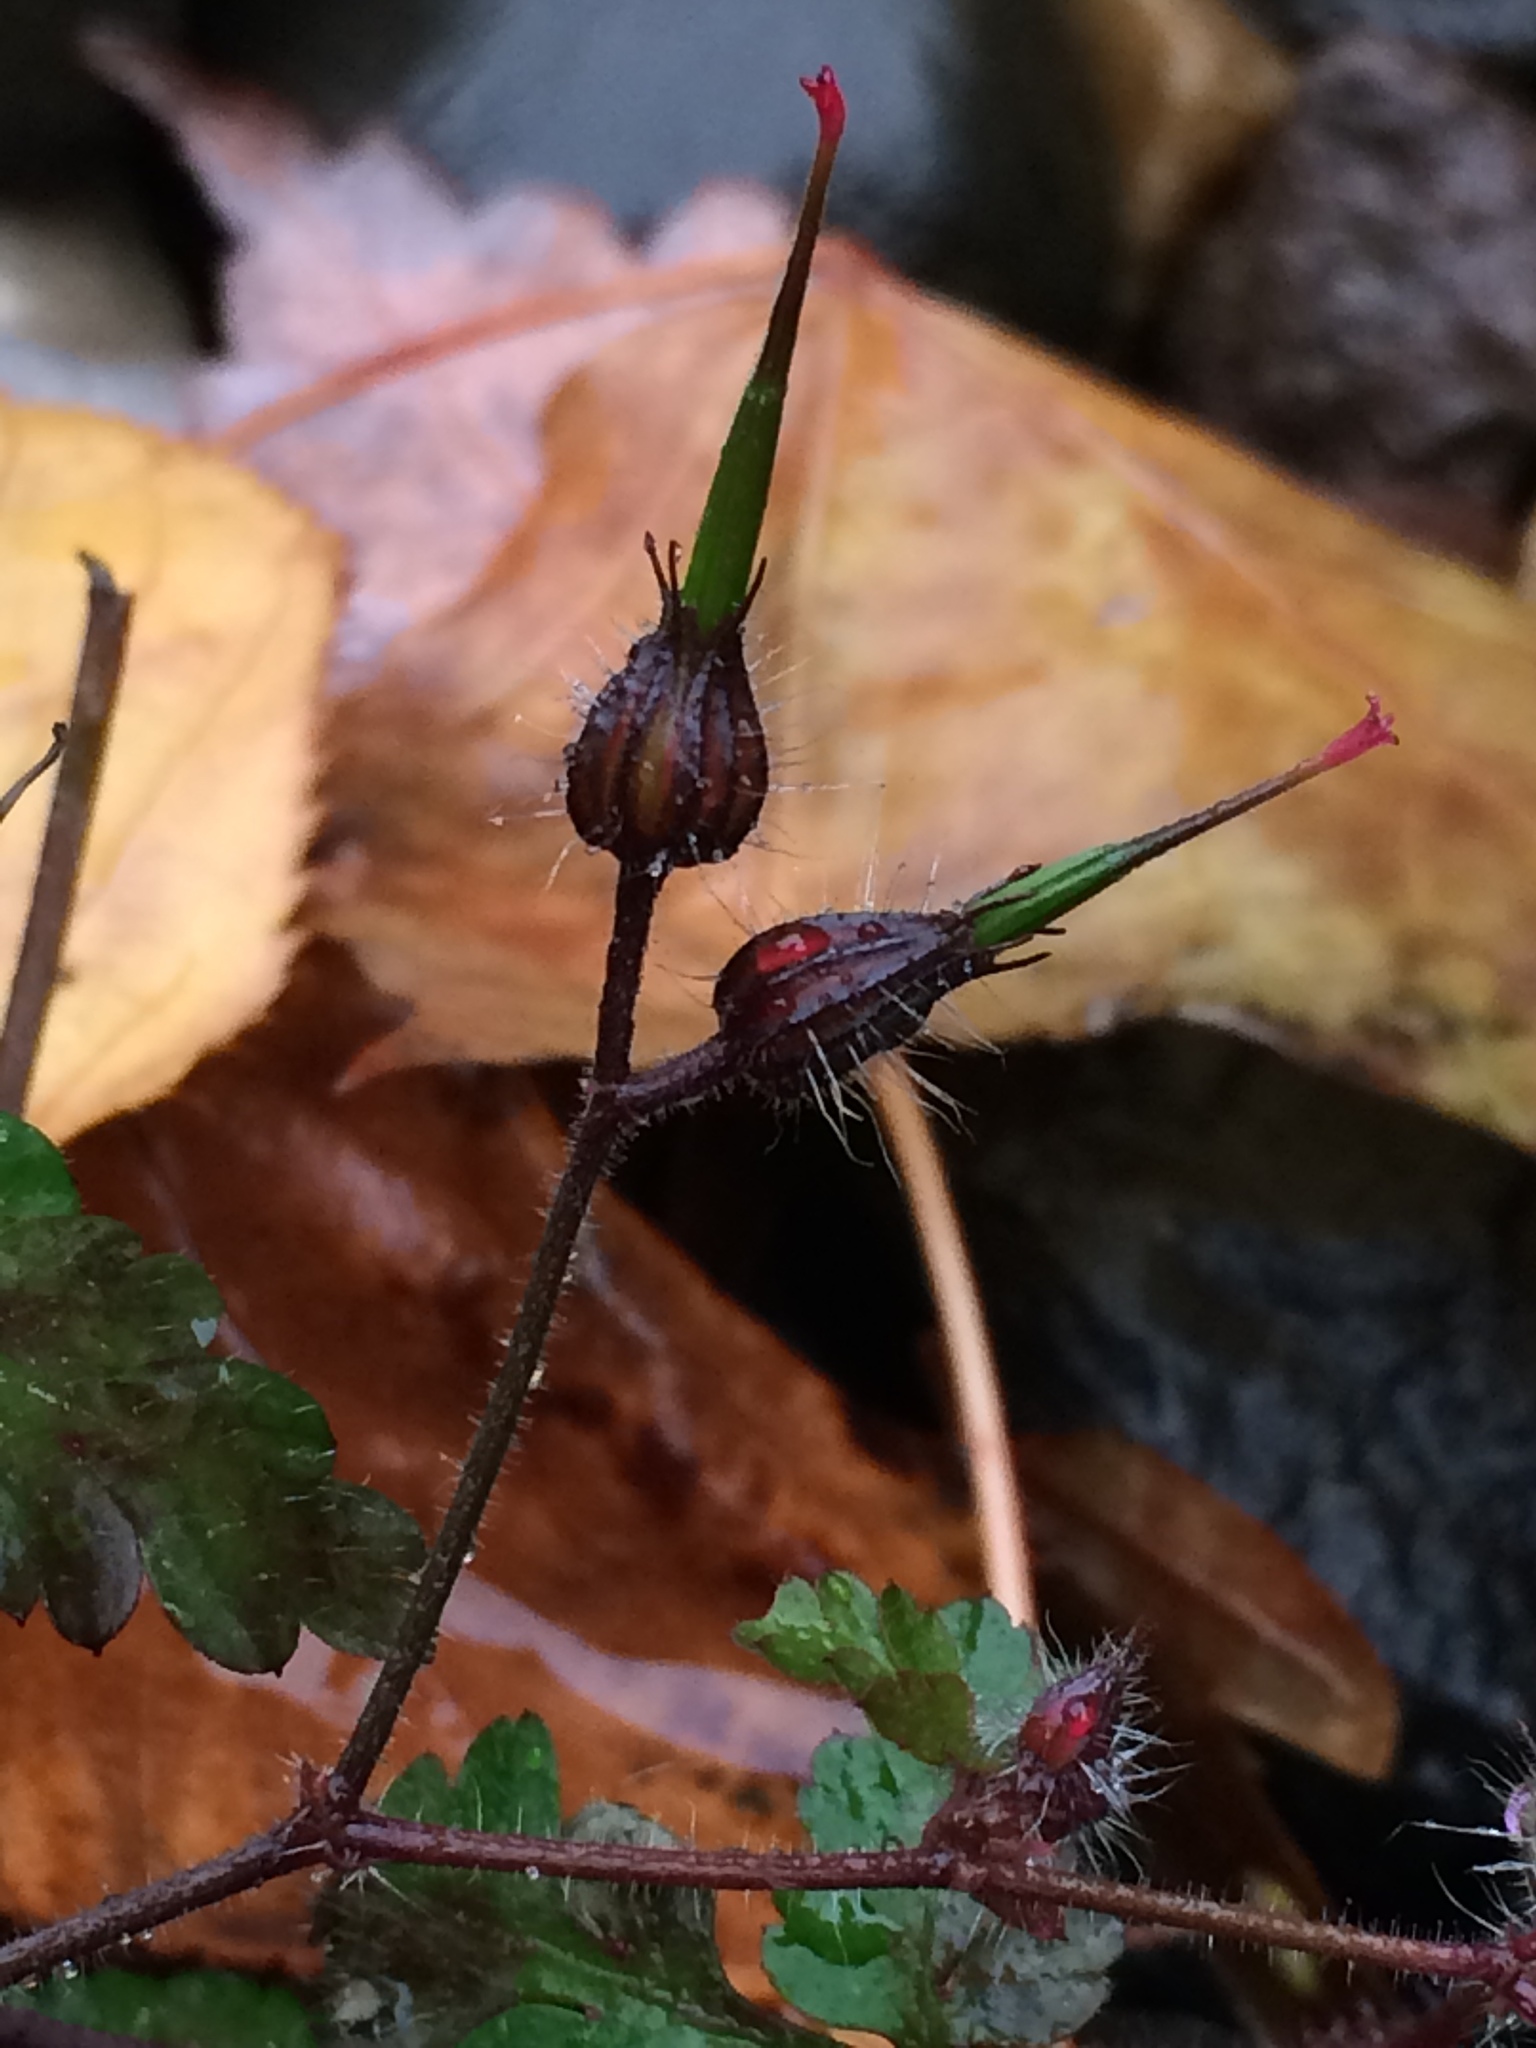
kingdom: Plantae
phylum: Tracheophyta
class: Magnoliopsida
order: Geraniales
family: Geraniaceae
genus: Geranium
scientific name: Geranium robertianum
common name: Herb-robert
